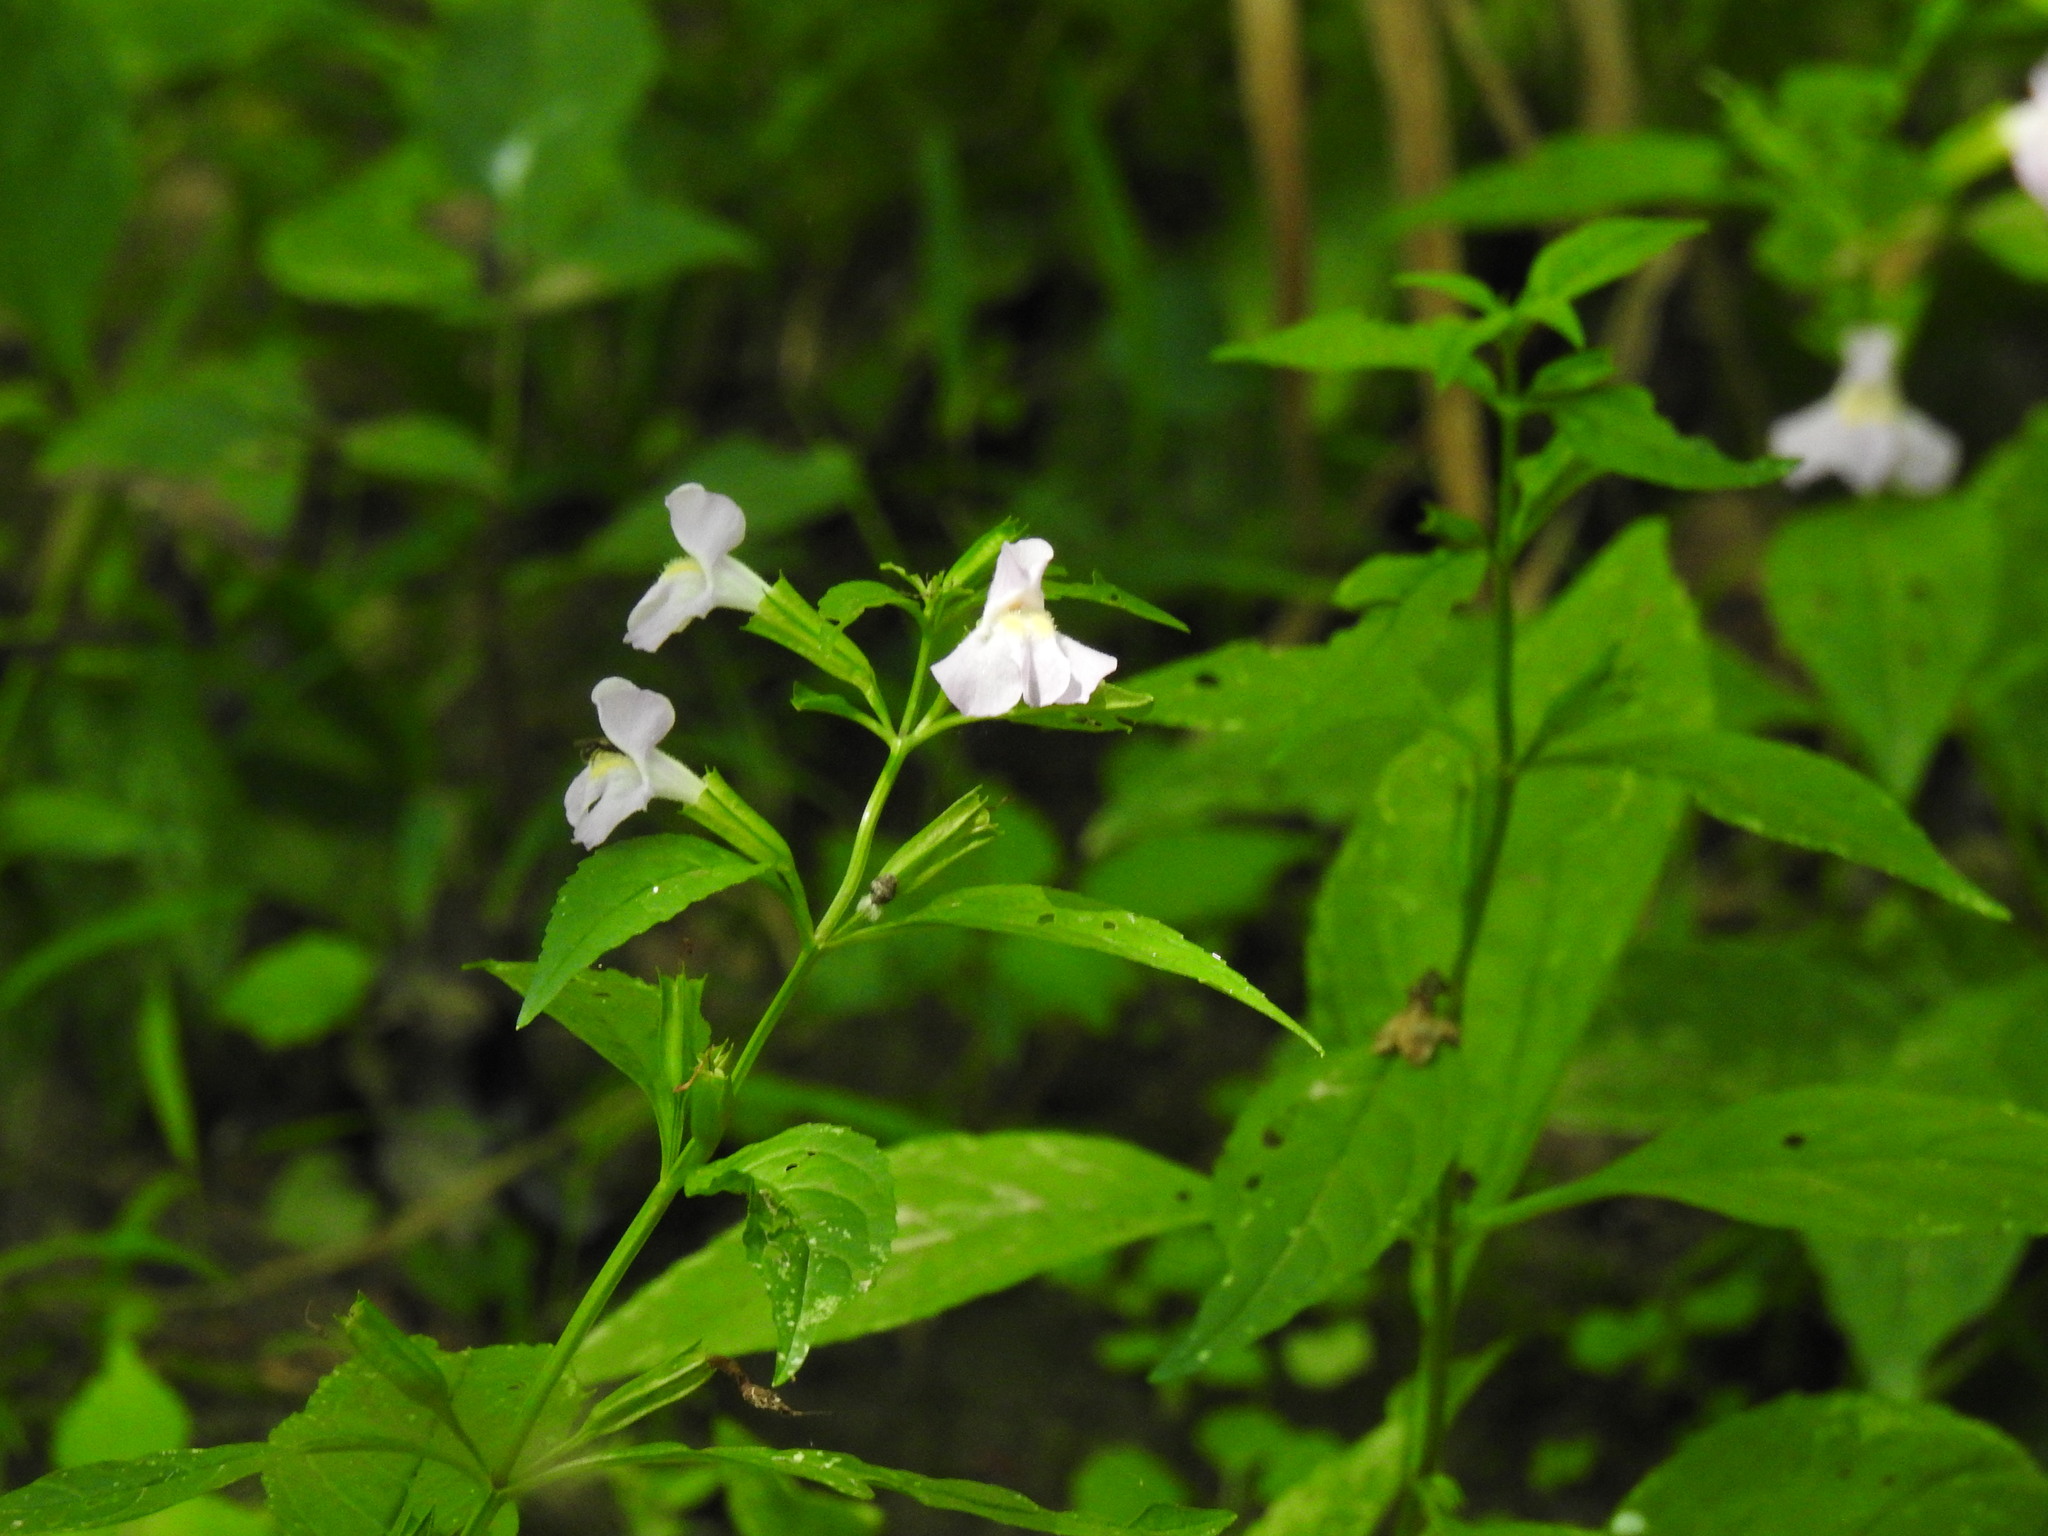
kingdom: Plantae
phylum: Tracheophyta
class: Magnoliopsida
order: Lamiales
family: Phrymaceae
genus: Mimulus
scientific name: Mimulus alatus
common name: Sharp-wing monkey-flower
